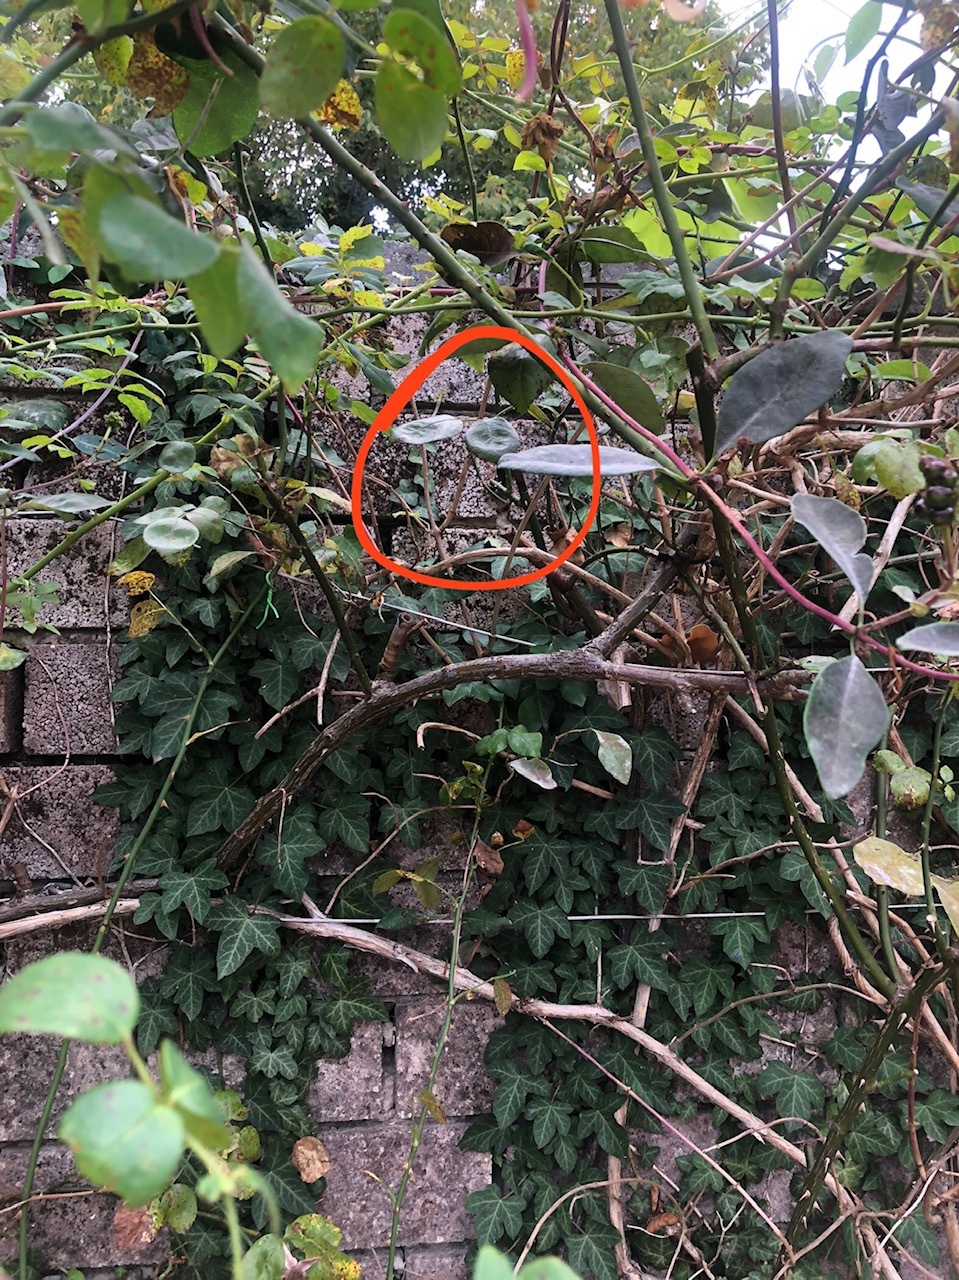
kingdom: Animalia
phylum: Arthropoda
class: Insecta
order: Hymenoptera
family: Vespidae
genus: Vespa
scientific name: Vespa crabro
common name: Hornet
